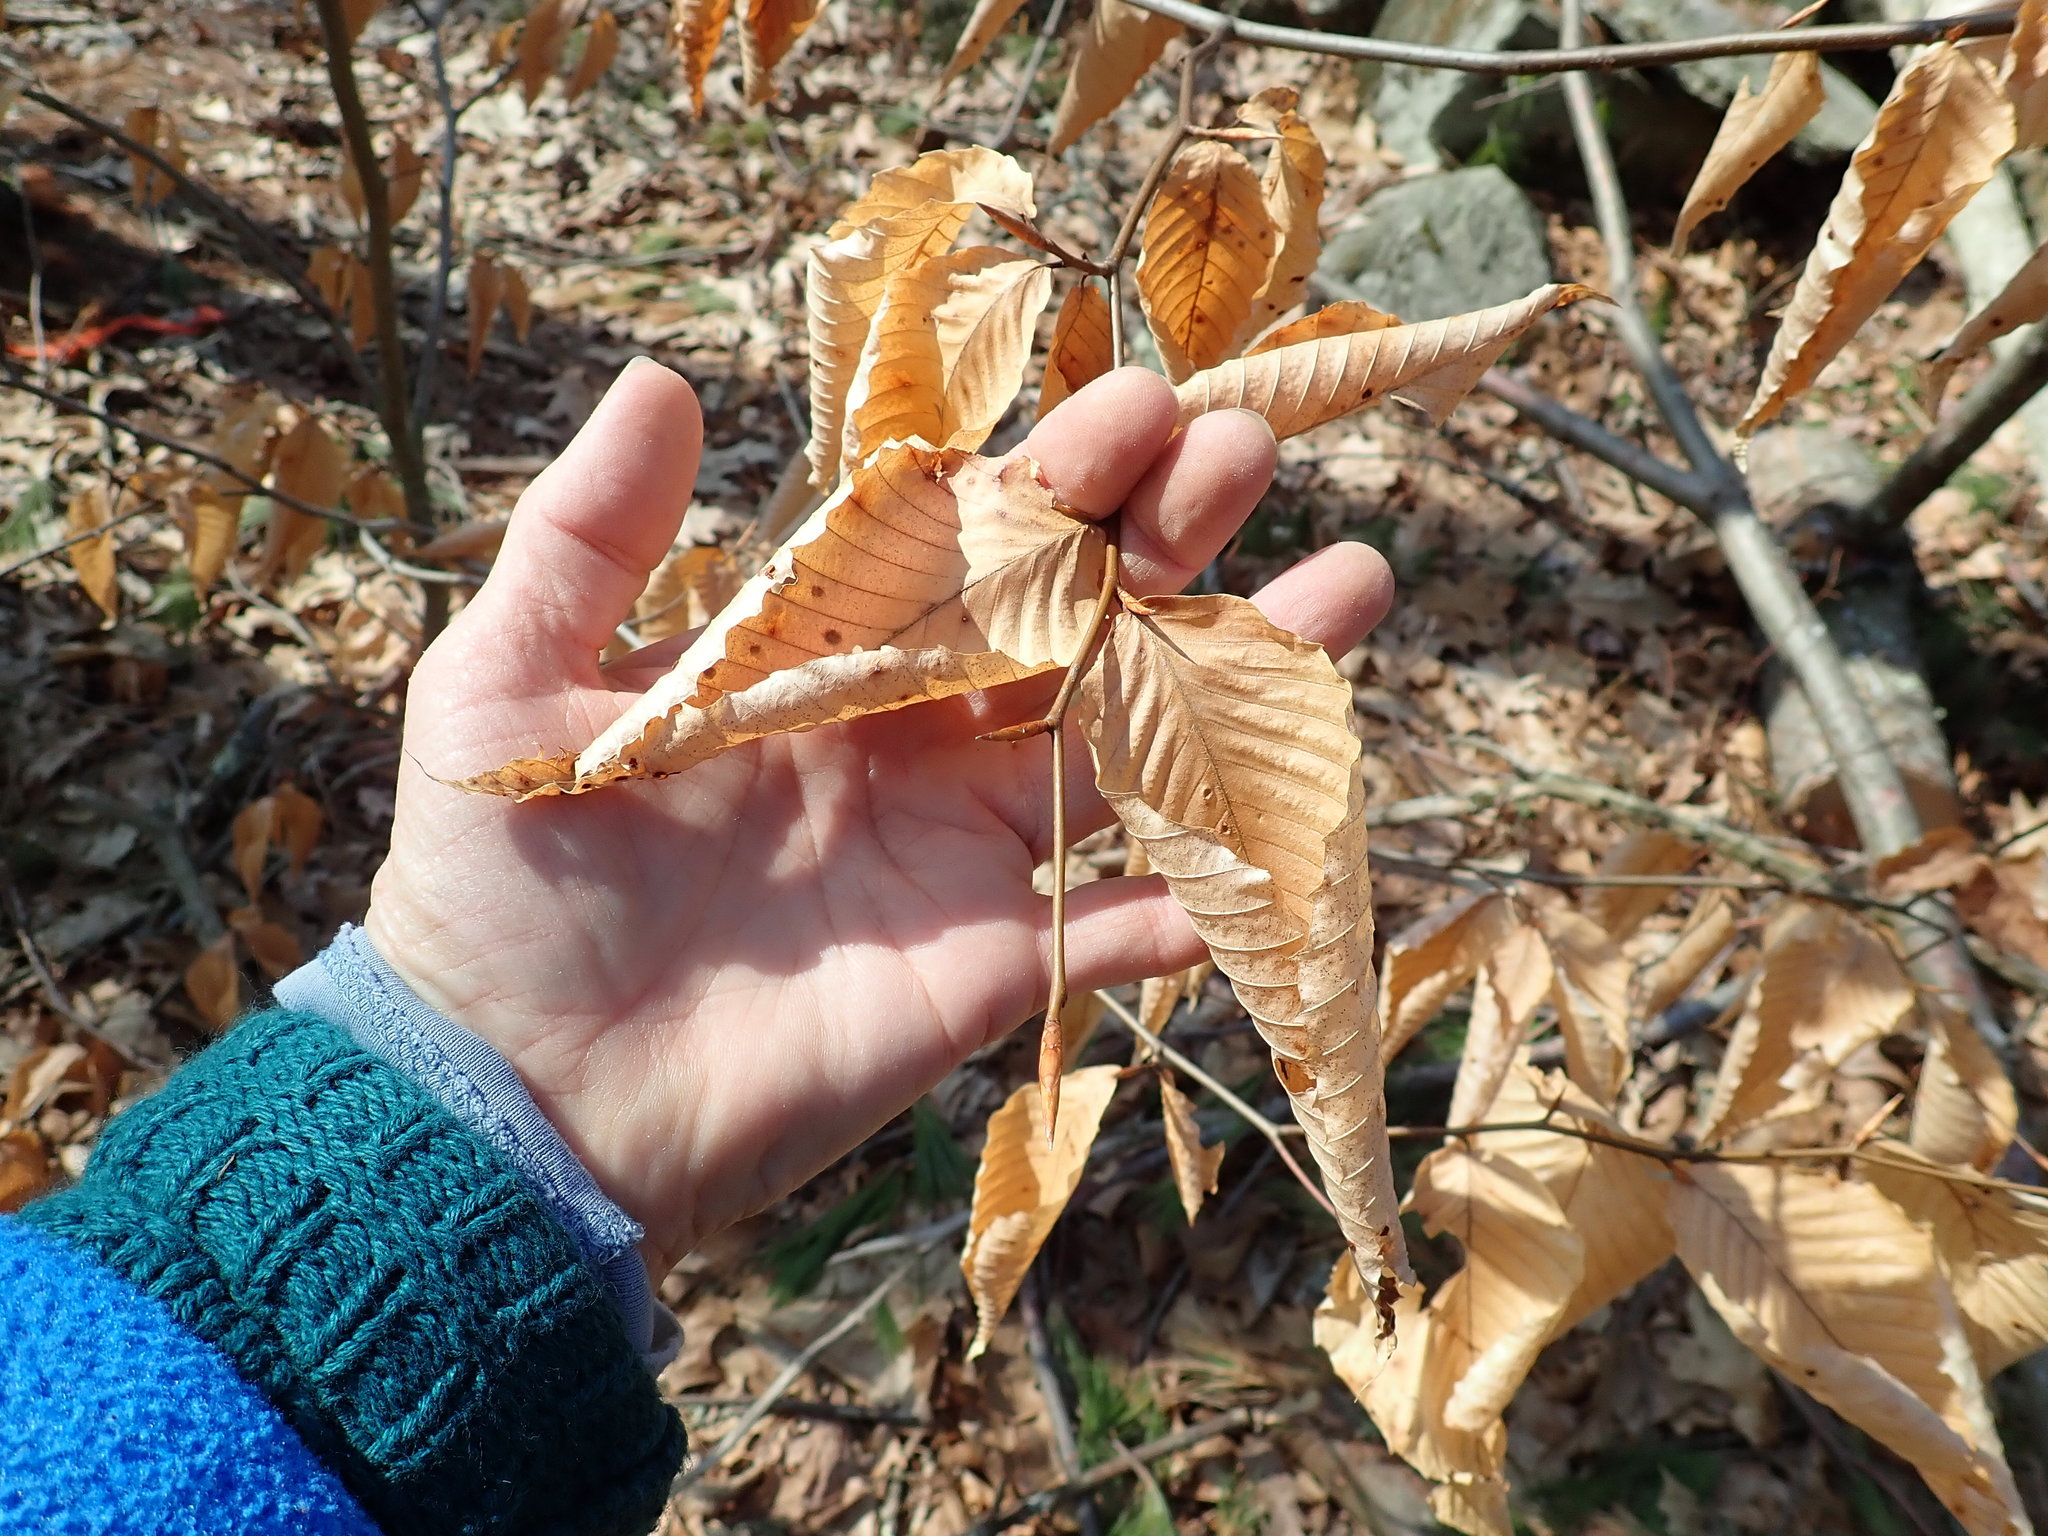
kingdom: Plantae
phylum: Tracheophyta
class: Magnoliopsida
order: Fagales
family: Fagaceae
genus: Fagus
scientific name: Fagus grandifolia
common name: American beech
